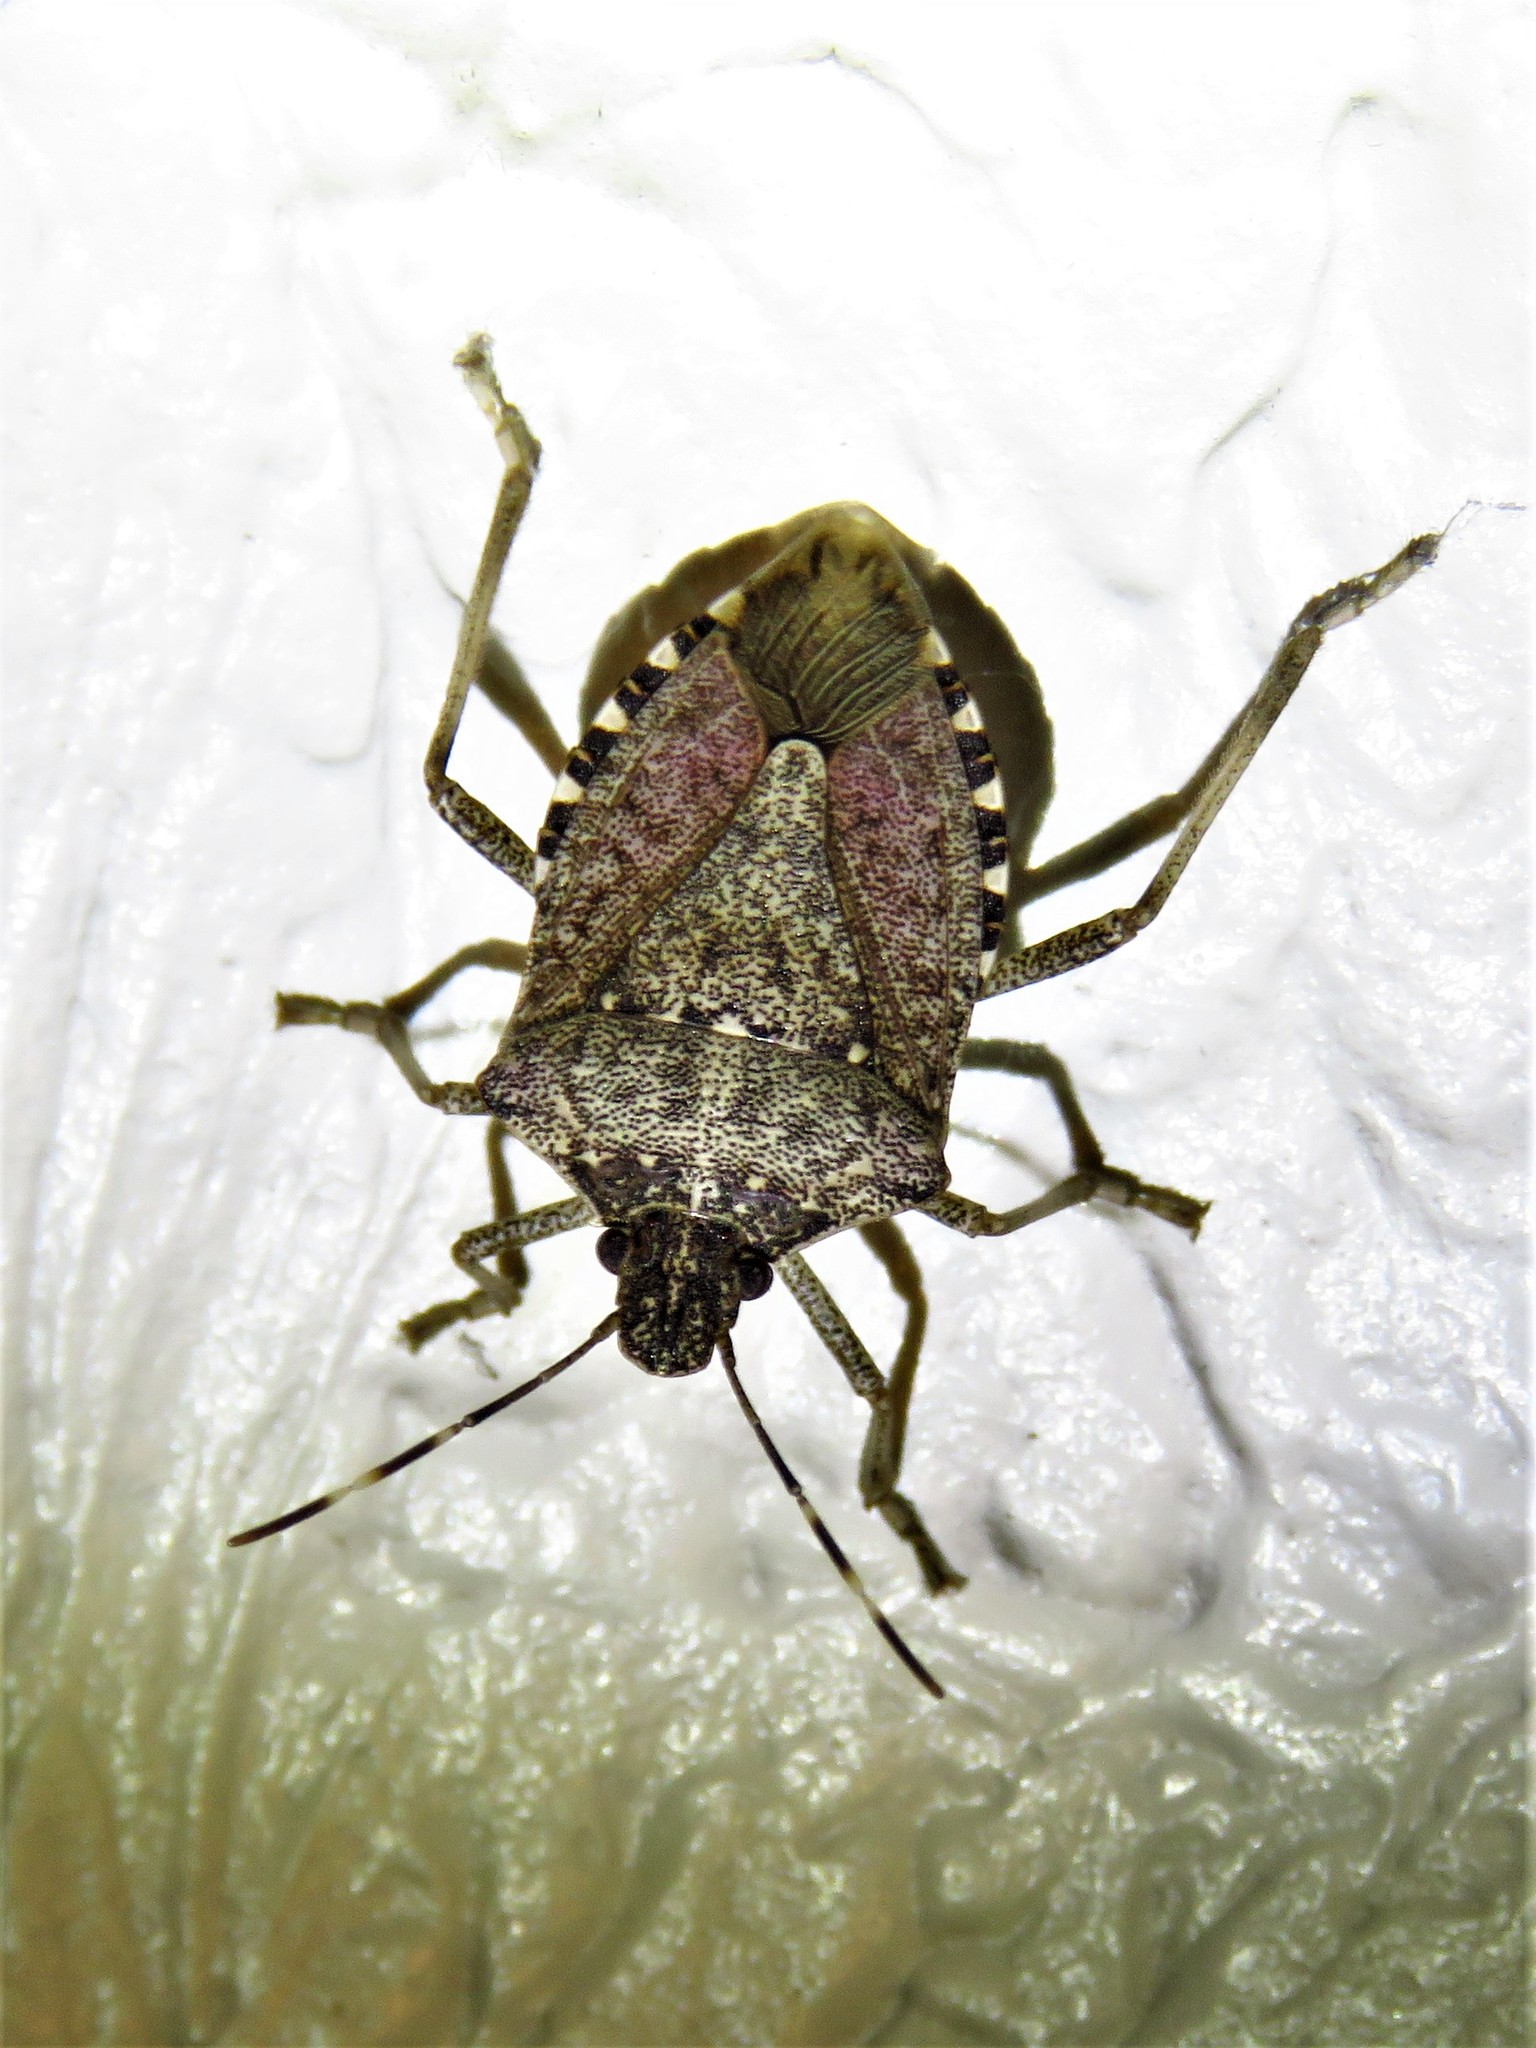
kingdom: Animalia
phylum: Arthropoda
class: Insecta
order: Hemiptera
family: Pentatomidae
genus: Halyomorpha
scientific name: Halyomorpha halys
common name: Brown marmorated stink bug
